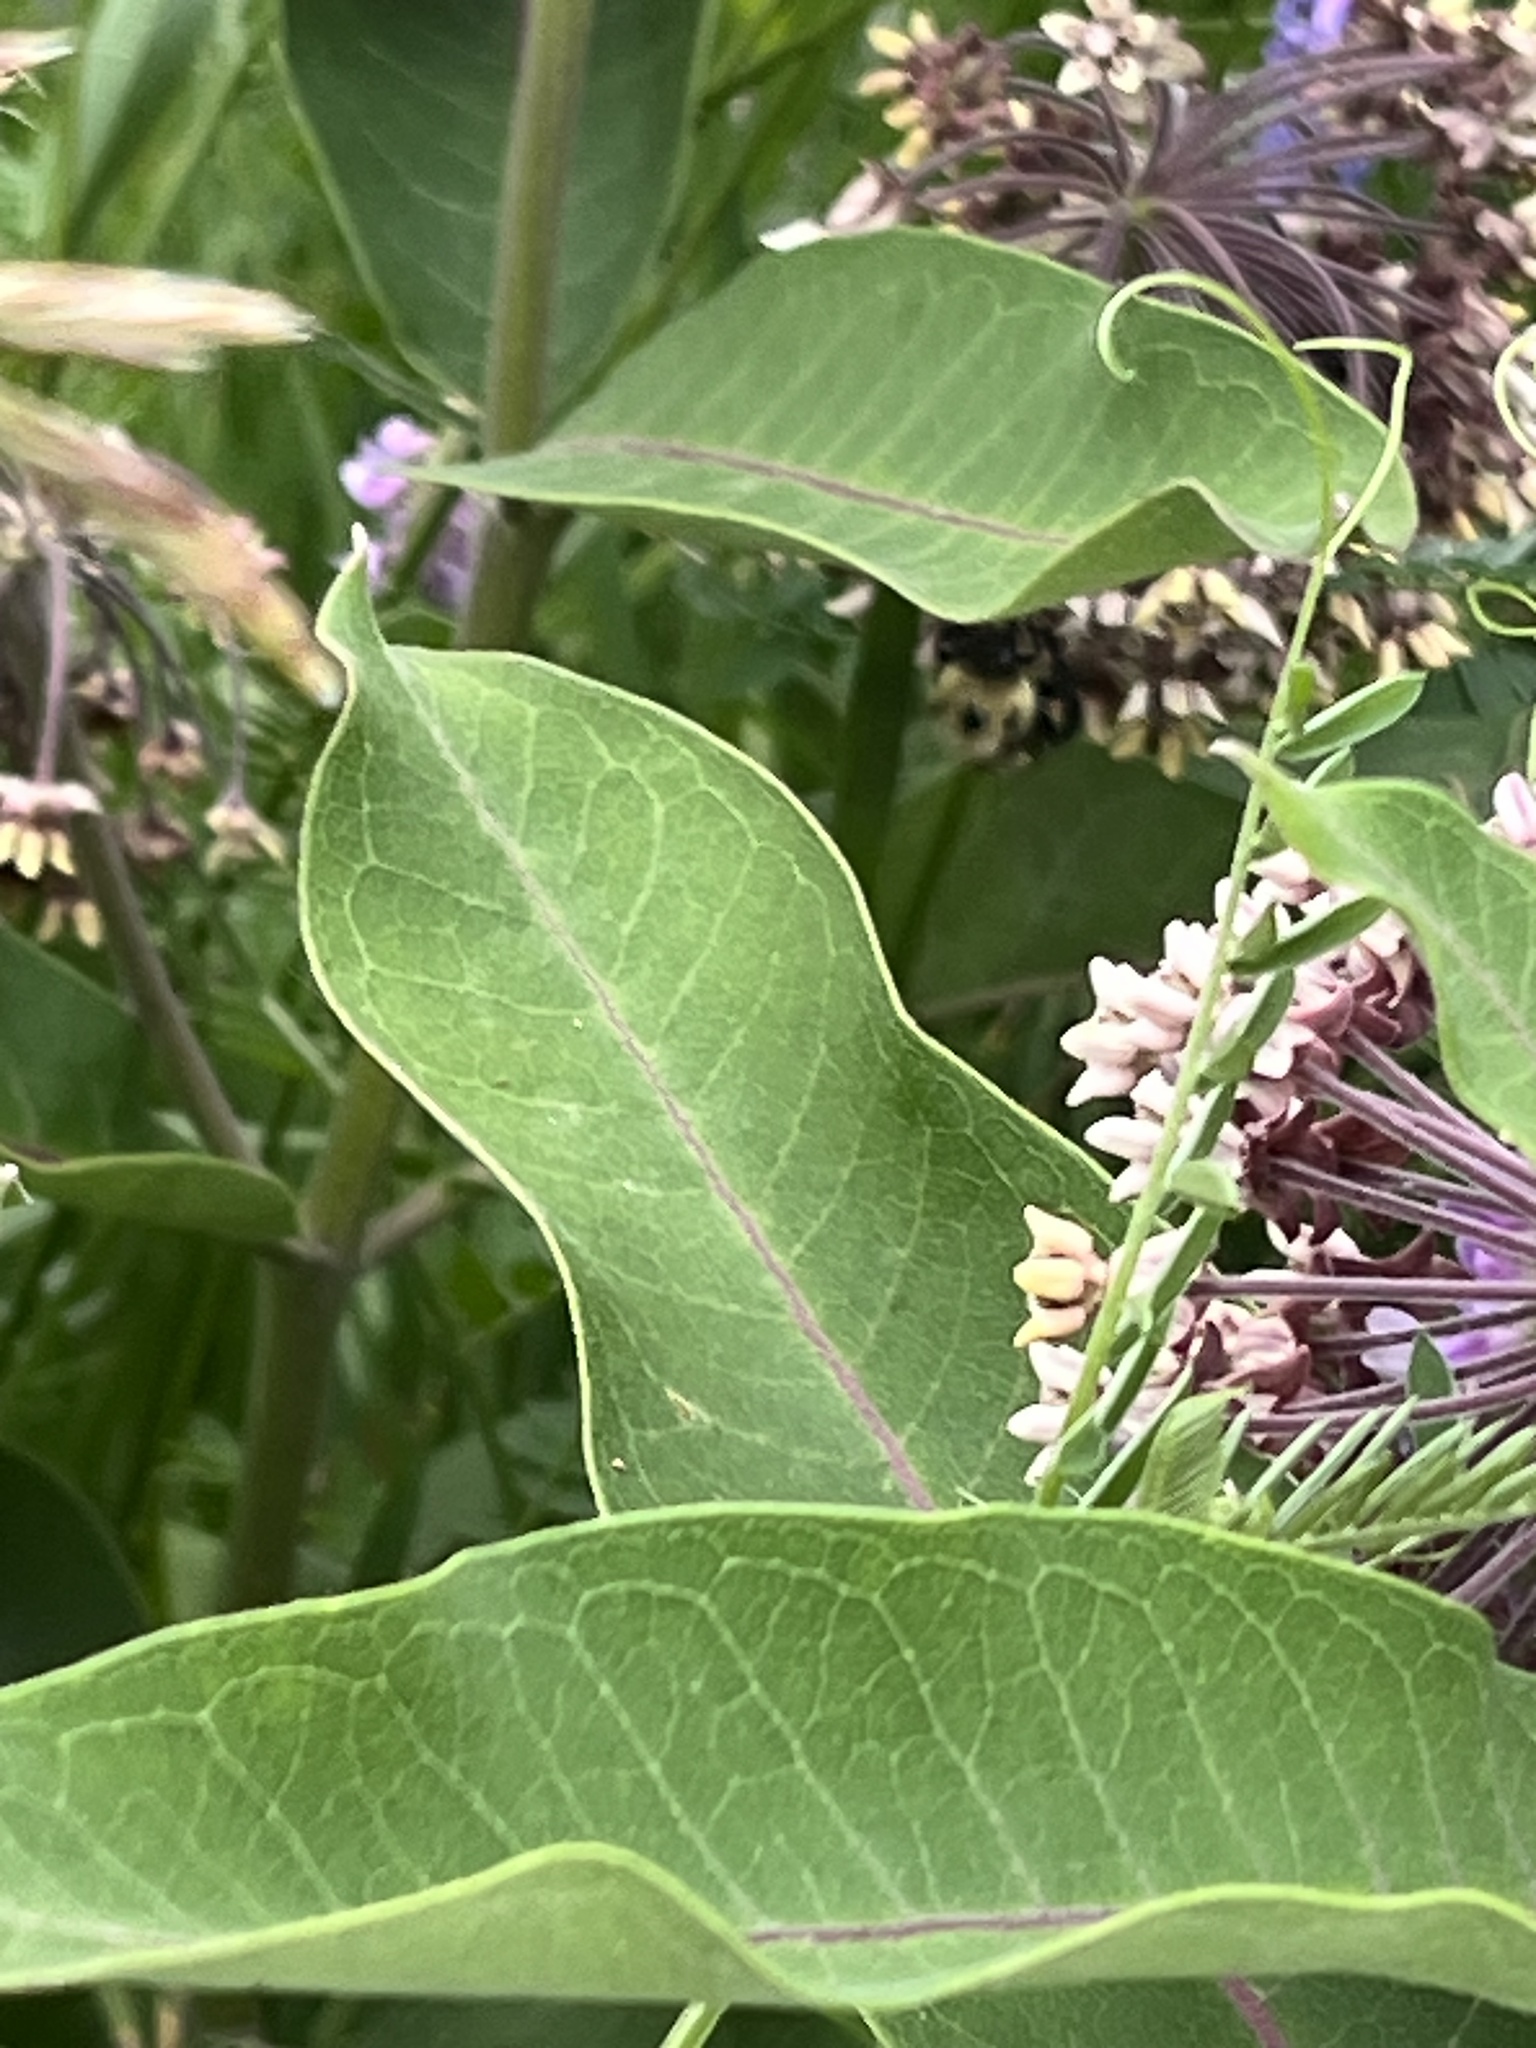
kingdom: Animalia
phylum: Arthropoda
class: Insecta
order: Hymenoptera
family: Apidae
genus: Bombus
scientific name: Bombus griseocollis
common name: Brown-belted bumble bee
